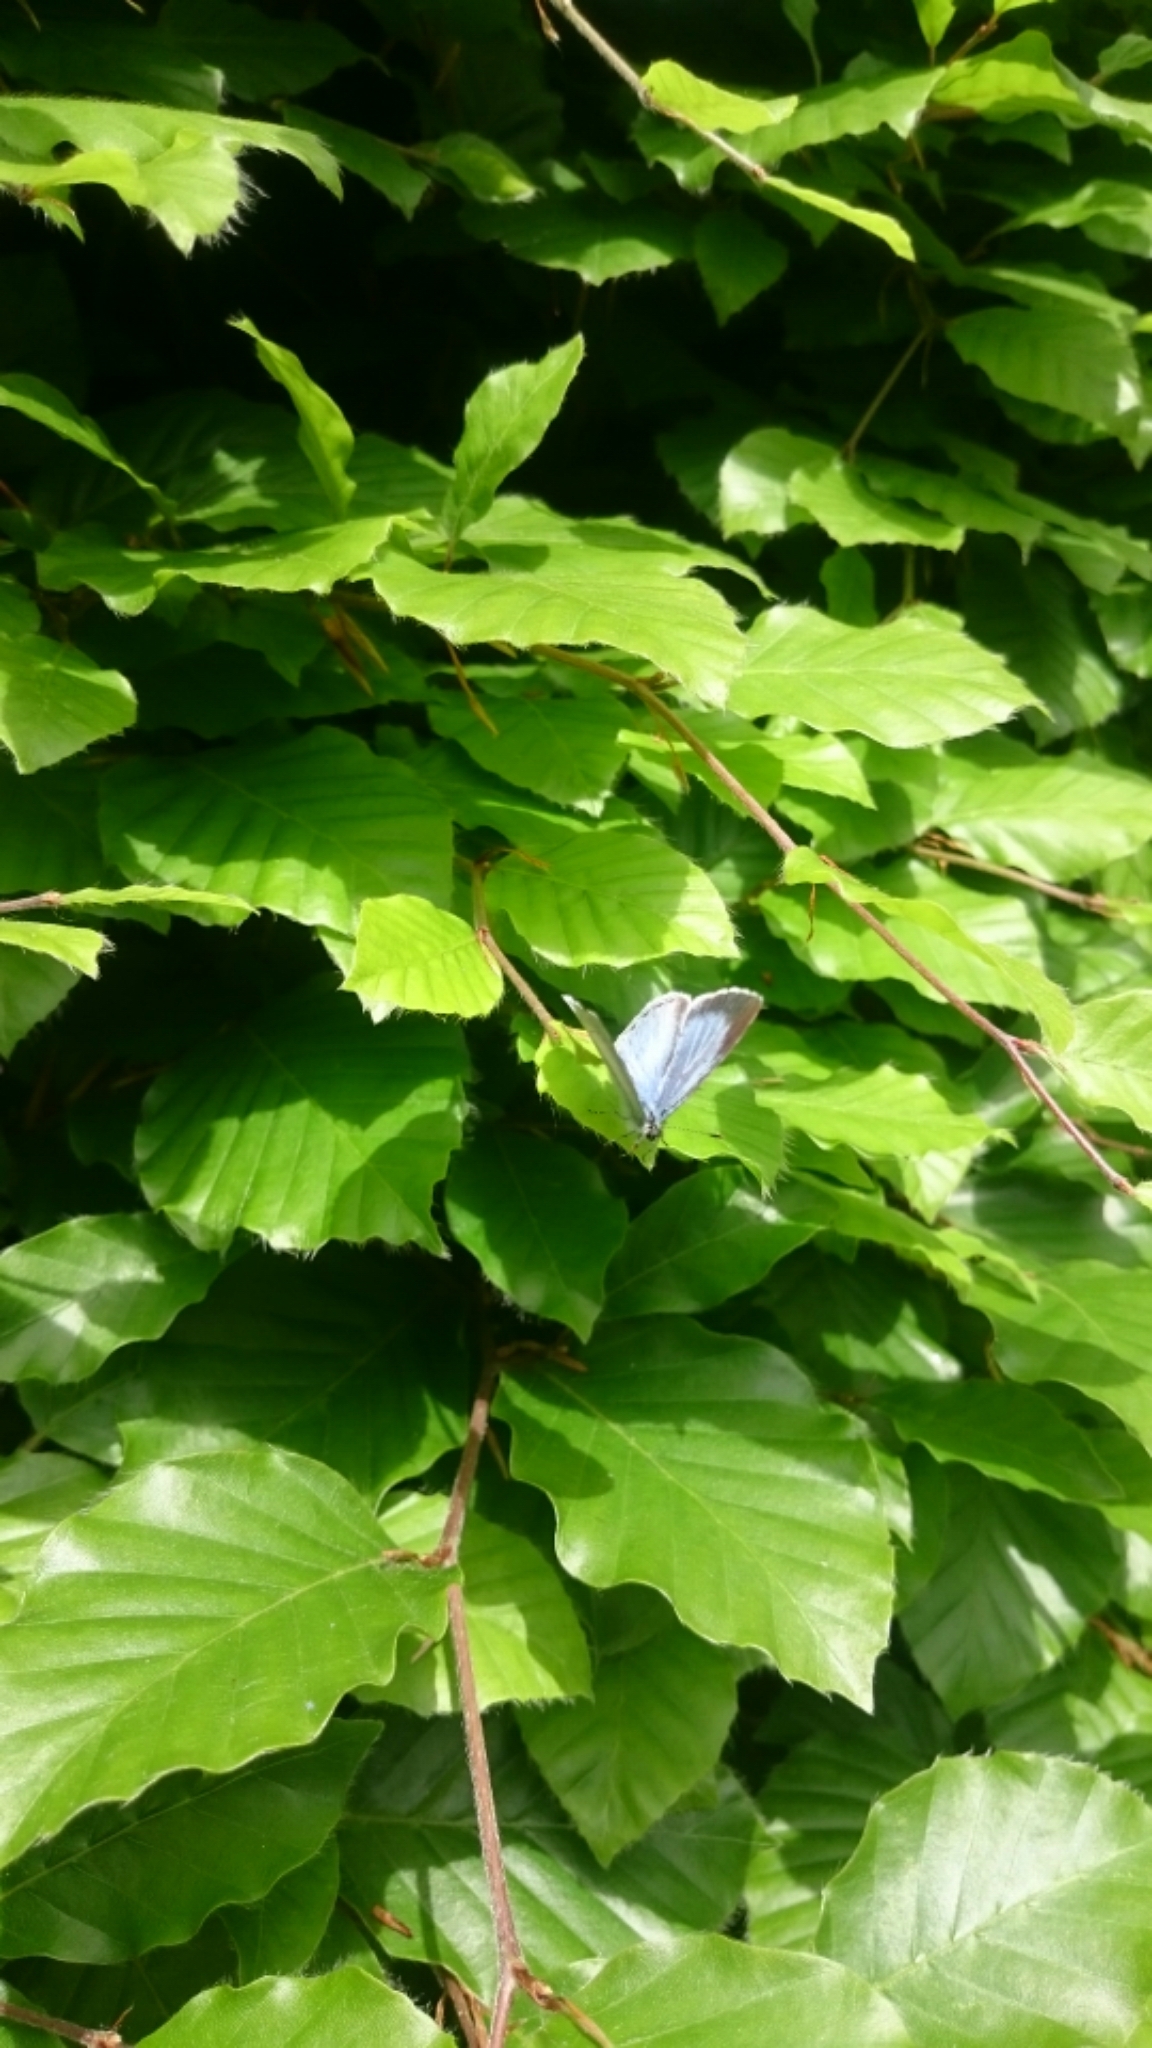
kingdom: Animalia
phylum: Arthropoda
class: Insecta
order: Lepidoptera
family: Lycaenidae
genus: Celastrina
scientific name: Celastrina argiolus
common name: Holly blue
